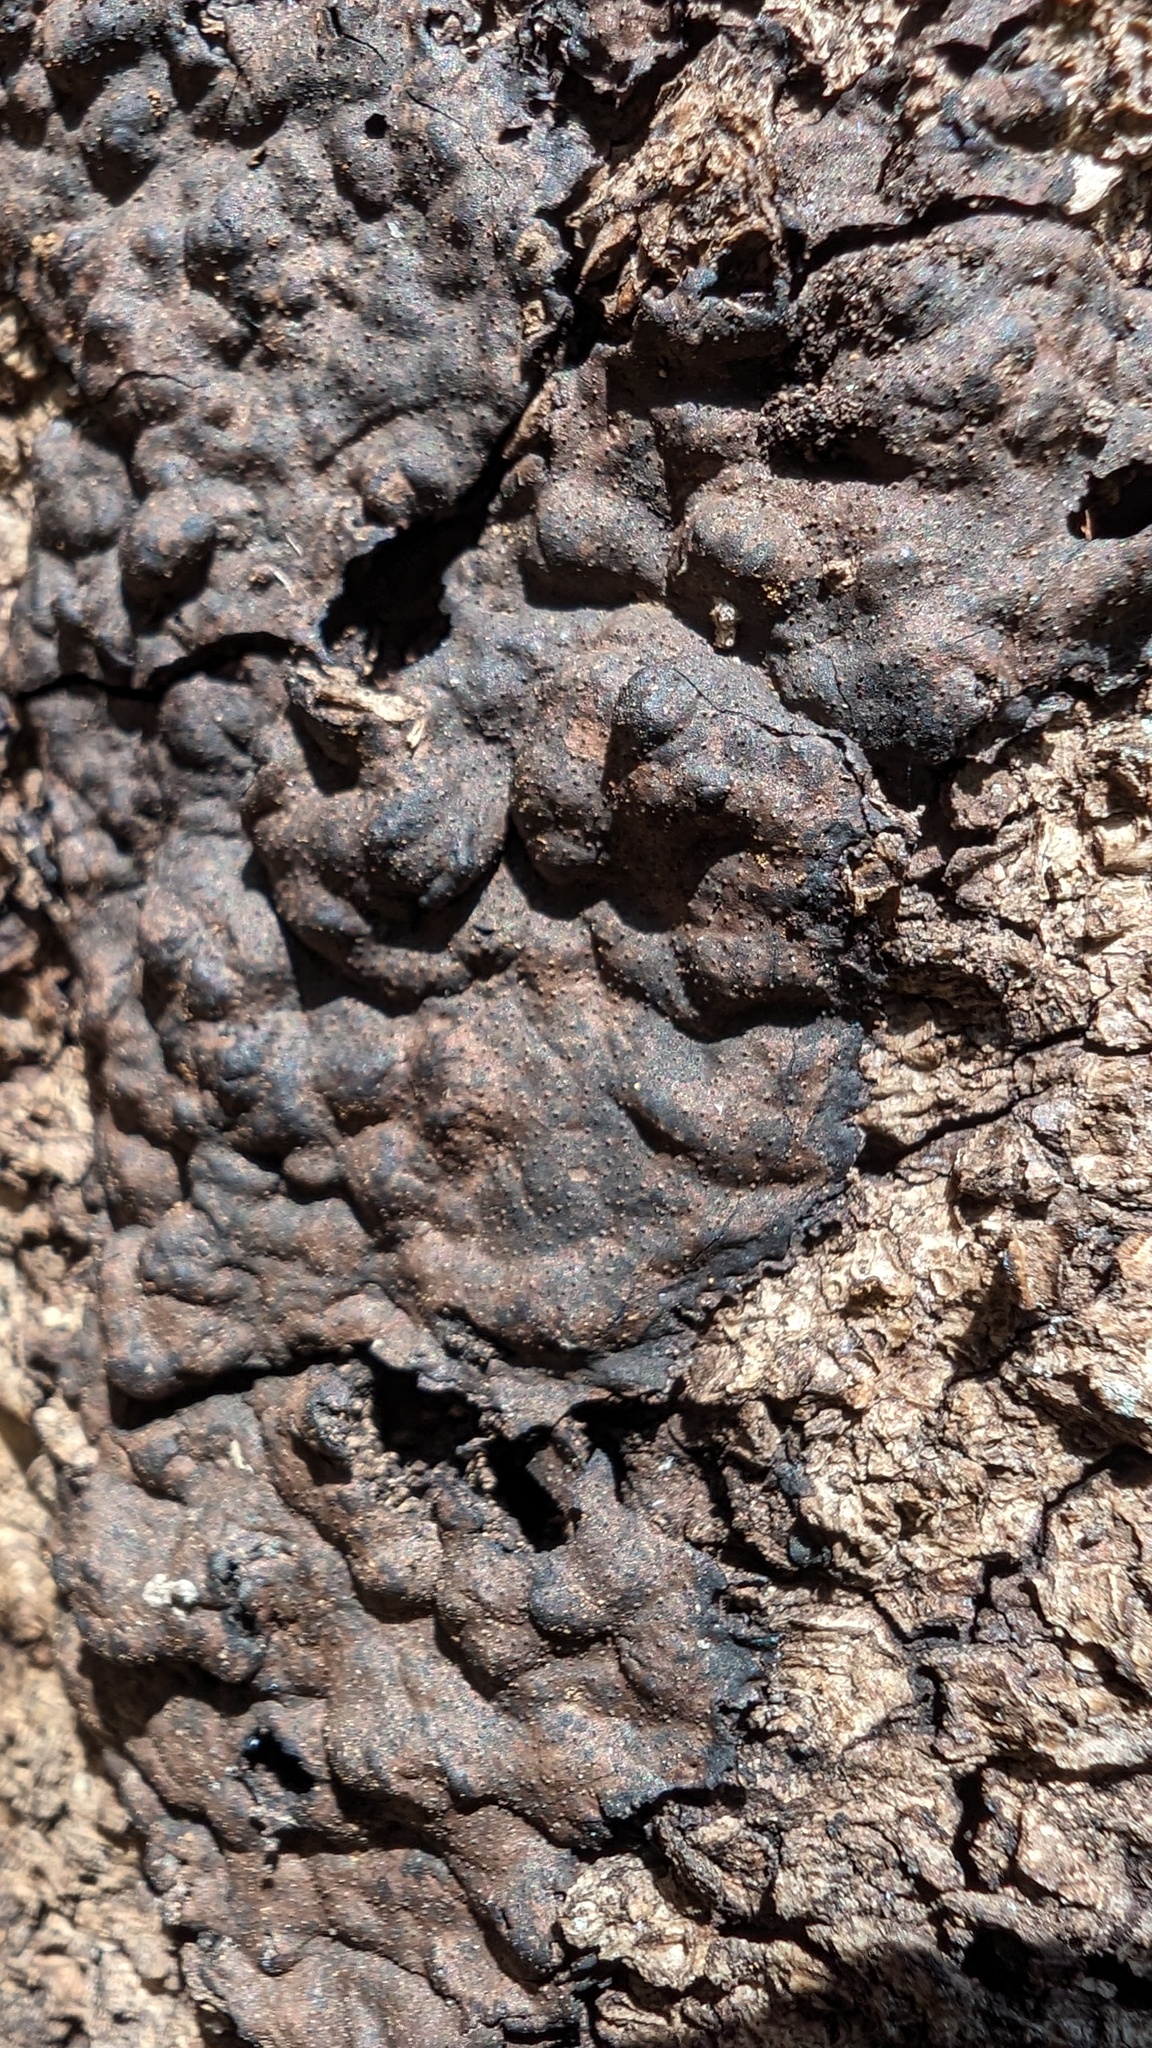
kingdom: Fungi
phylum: Ascomycota
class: Sordariomycetes
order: Xylariales
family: Xylariaceae
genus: Kretzschmaria
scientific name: Kretzschmaria deusta
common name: Brittle cinder
